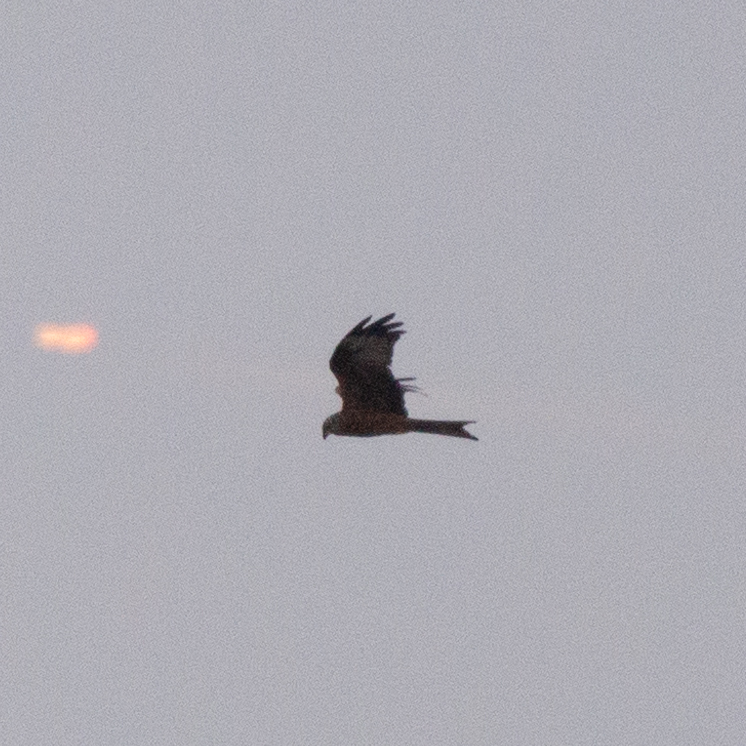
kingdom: Animalia
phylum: Chordata
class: Aves
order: Accipitriformes
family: Accipitridae
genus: Milvus
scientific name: Milvus milvus
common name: Red kite
